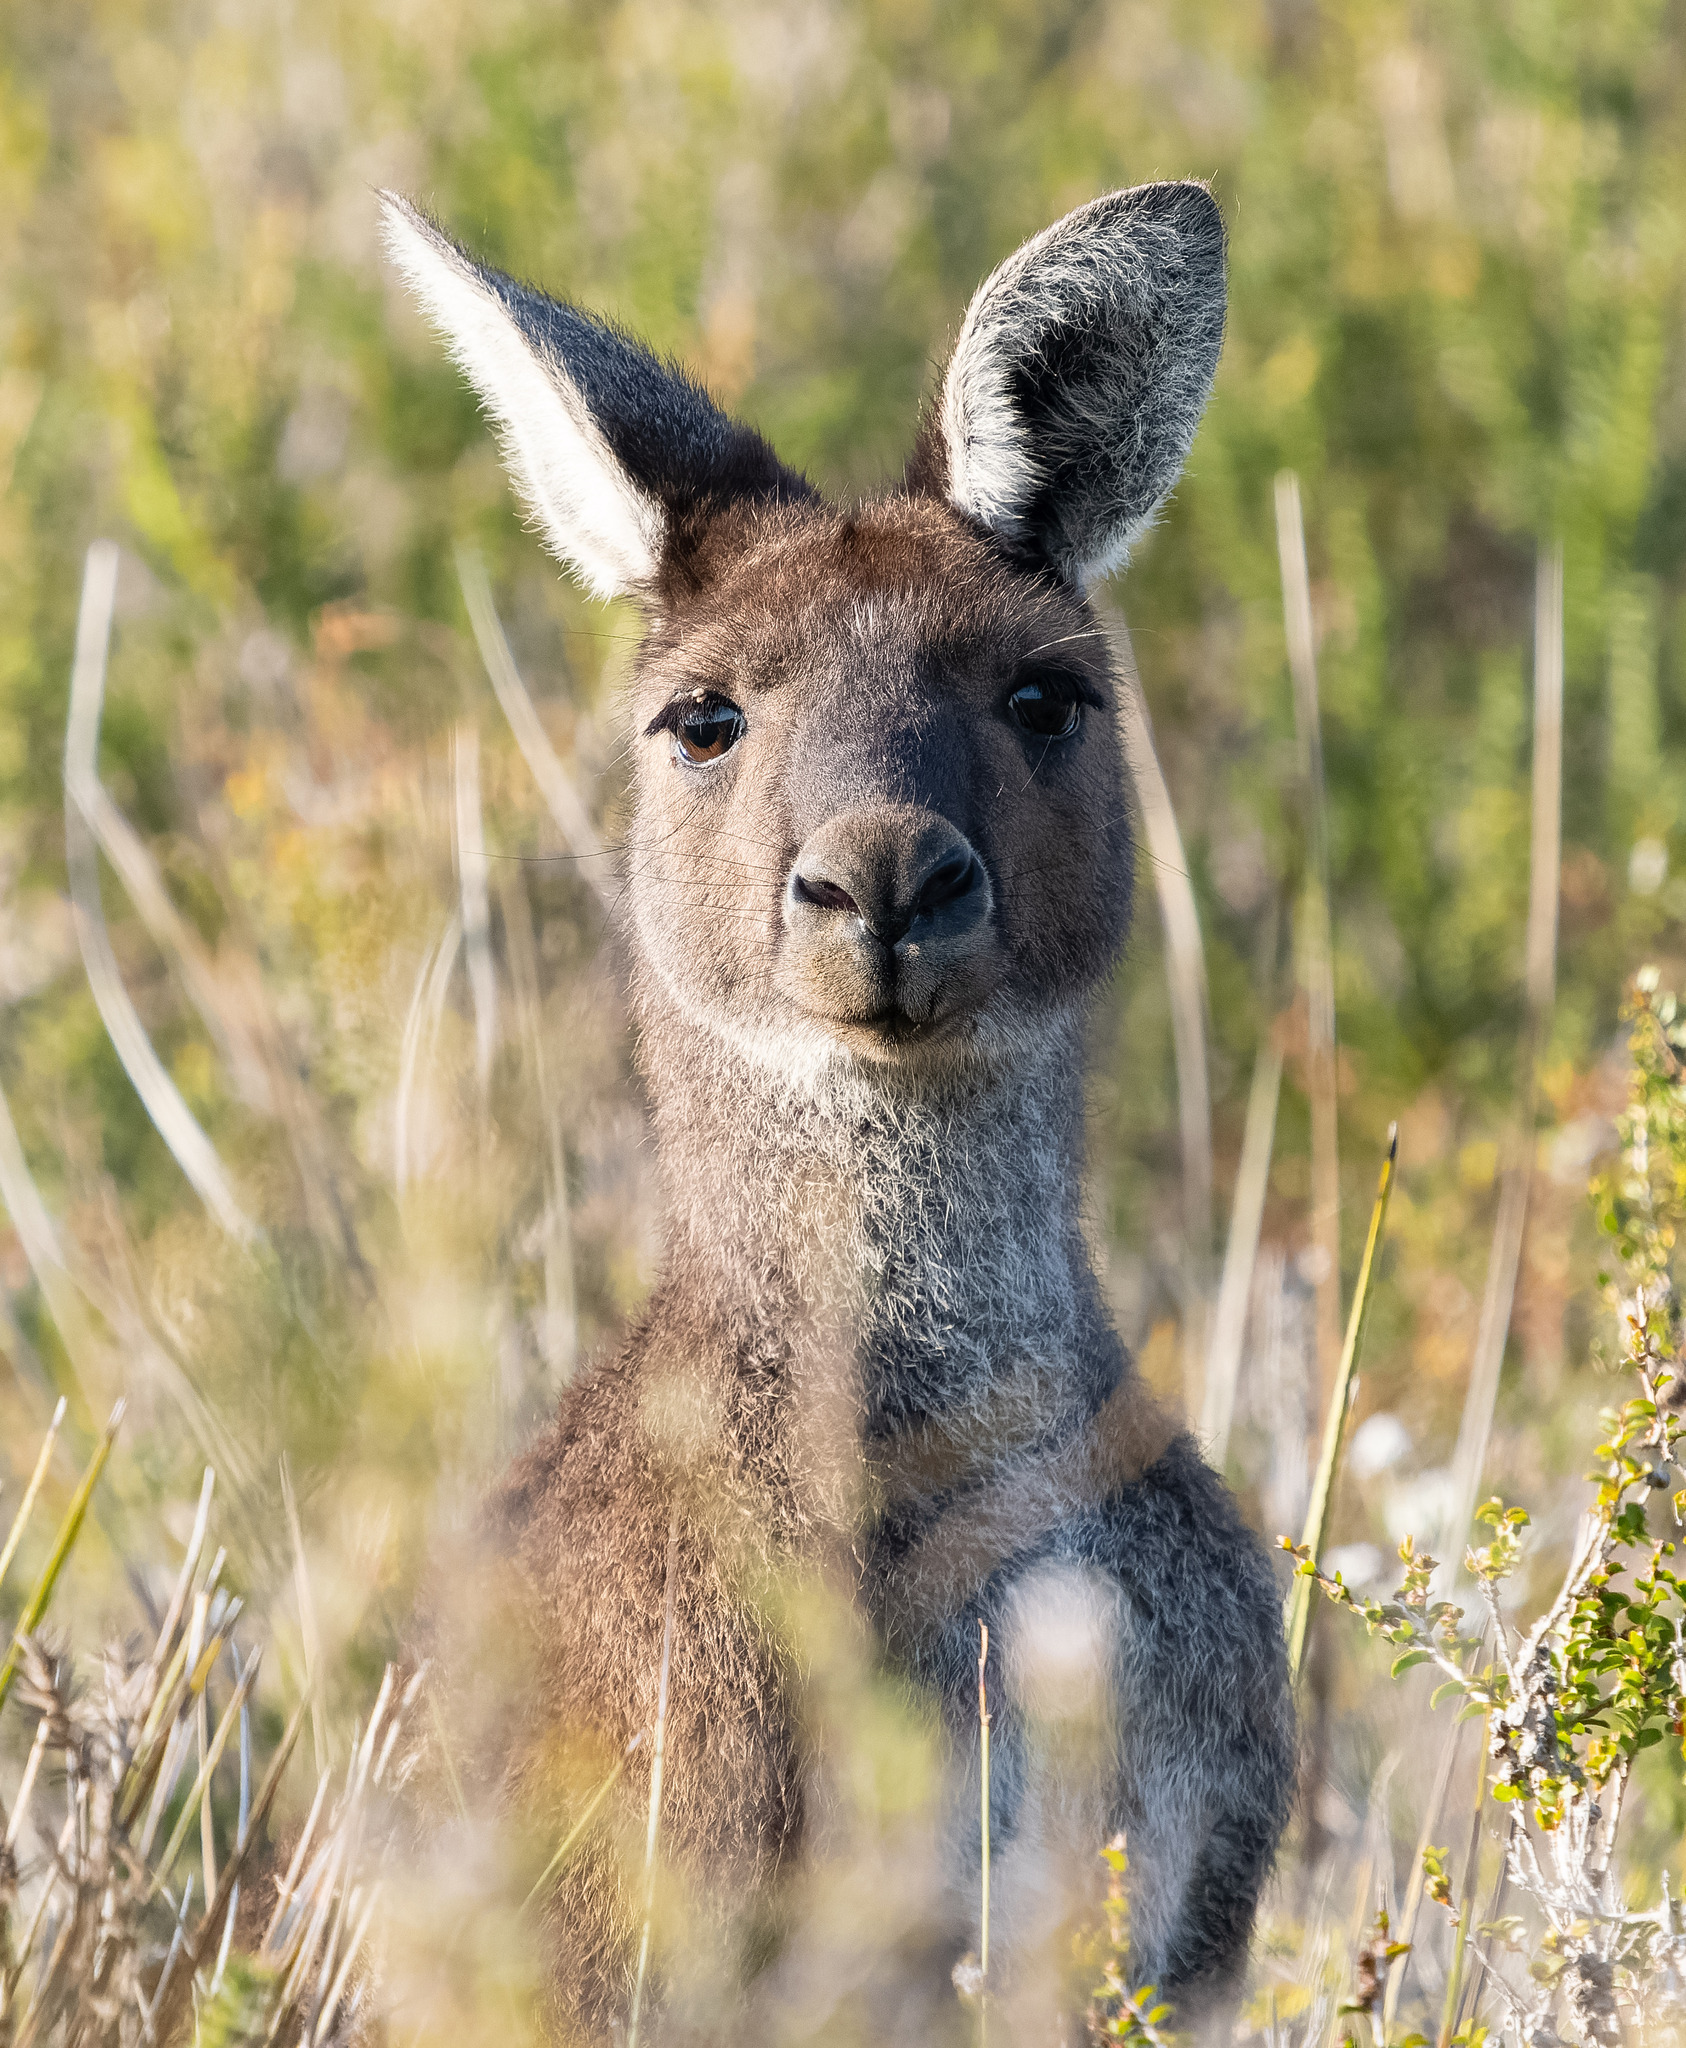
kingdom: Animalia
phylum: Chordata
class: Mammalia
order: Diprotodontia
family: Macropodidae
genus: Macropus
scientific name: Macropus fuliginosus
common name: Western grey kangaroo
